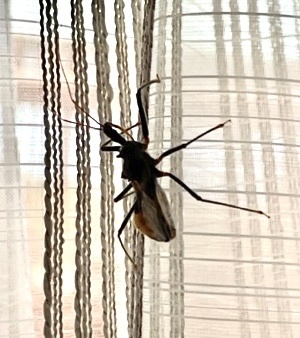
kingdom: Animalia
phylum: Arthropoda
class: Insecta
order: Hemiptera
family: Reduviidae
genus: Pristhesancus
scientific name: Pristhesancus plagipennis
